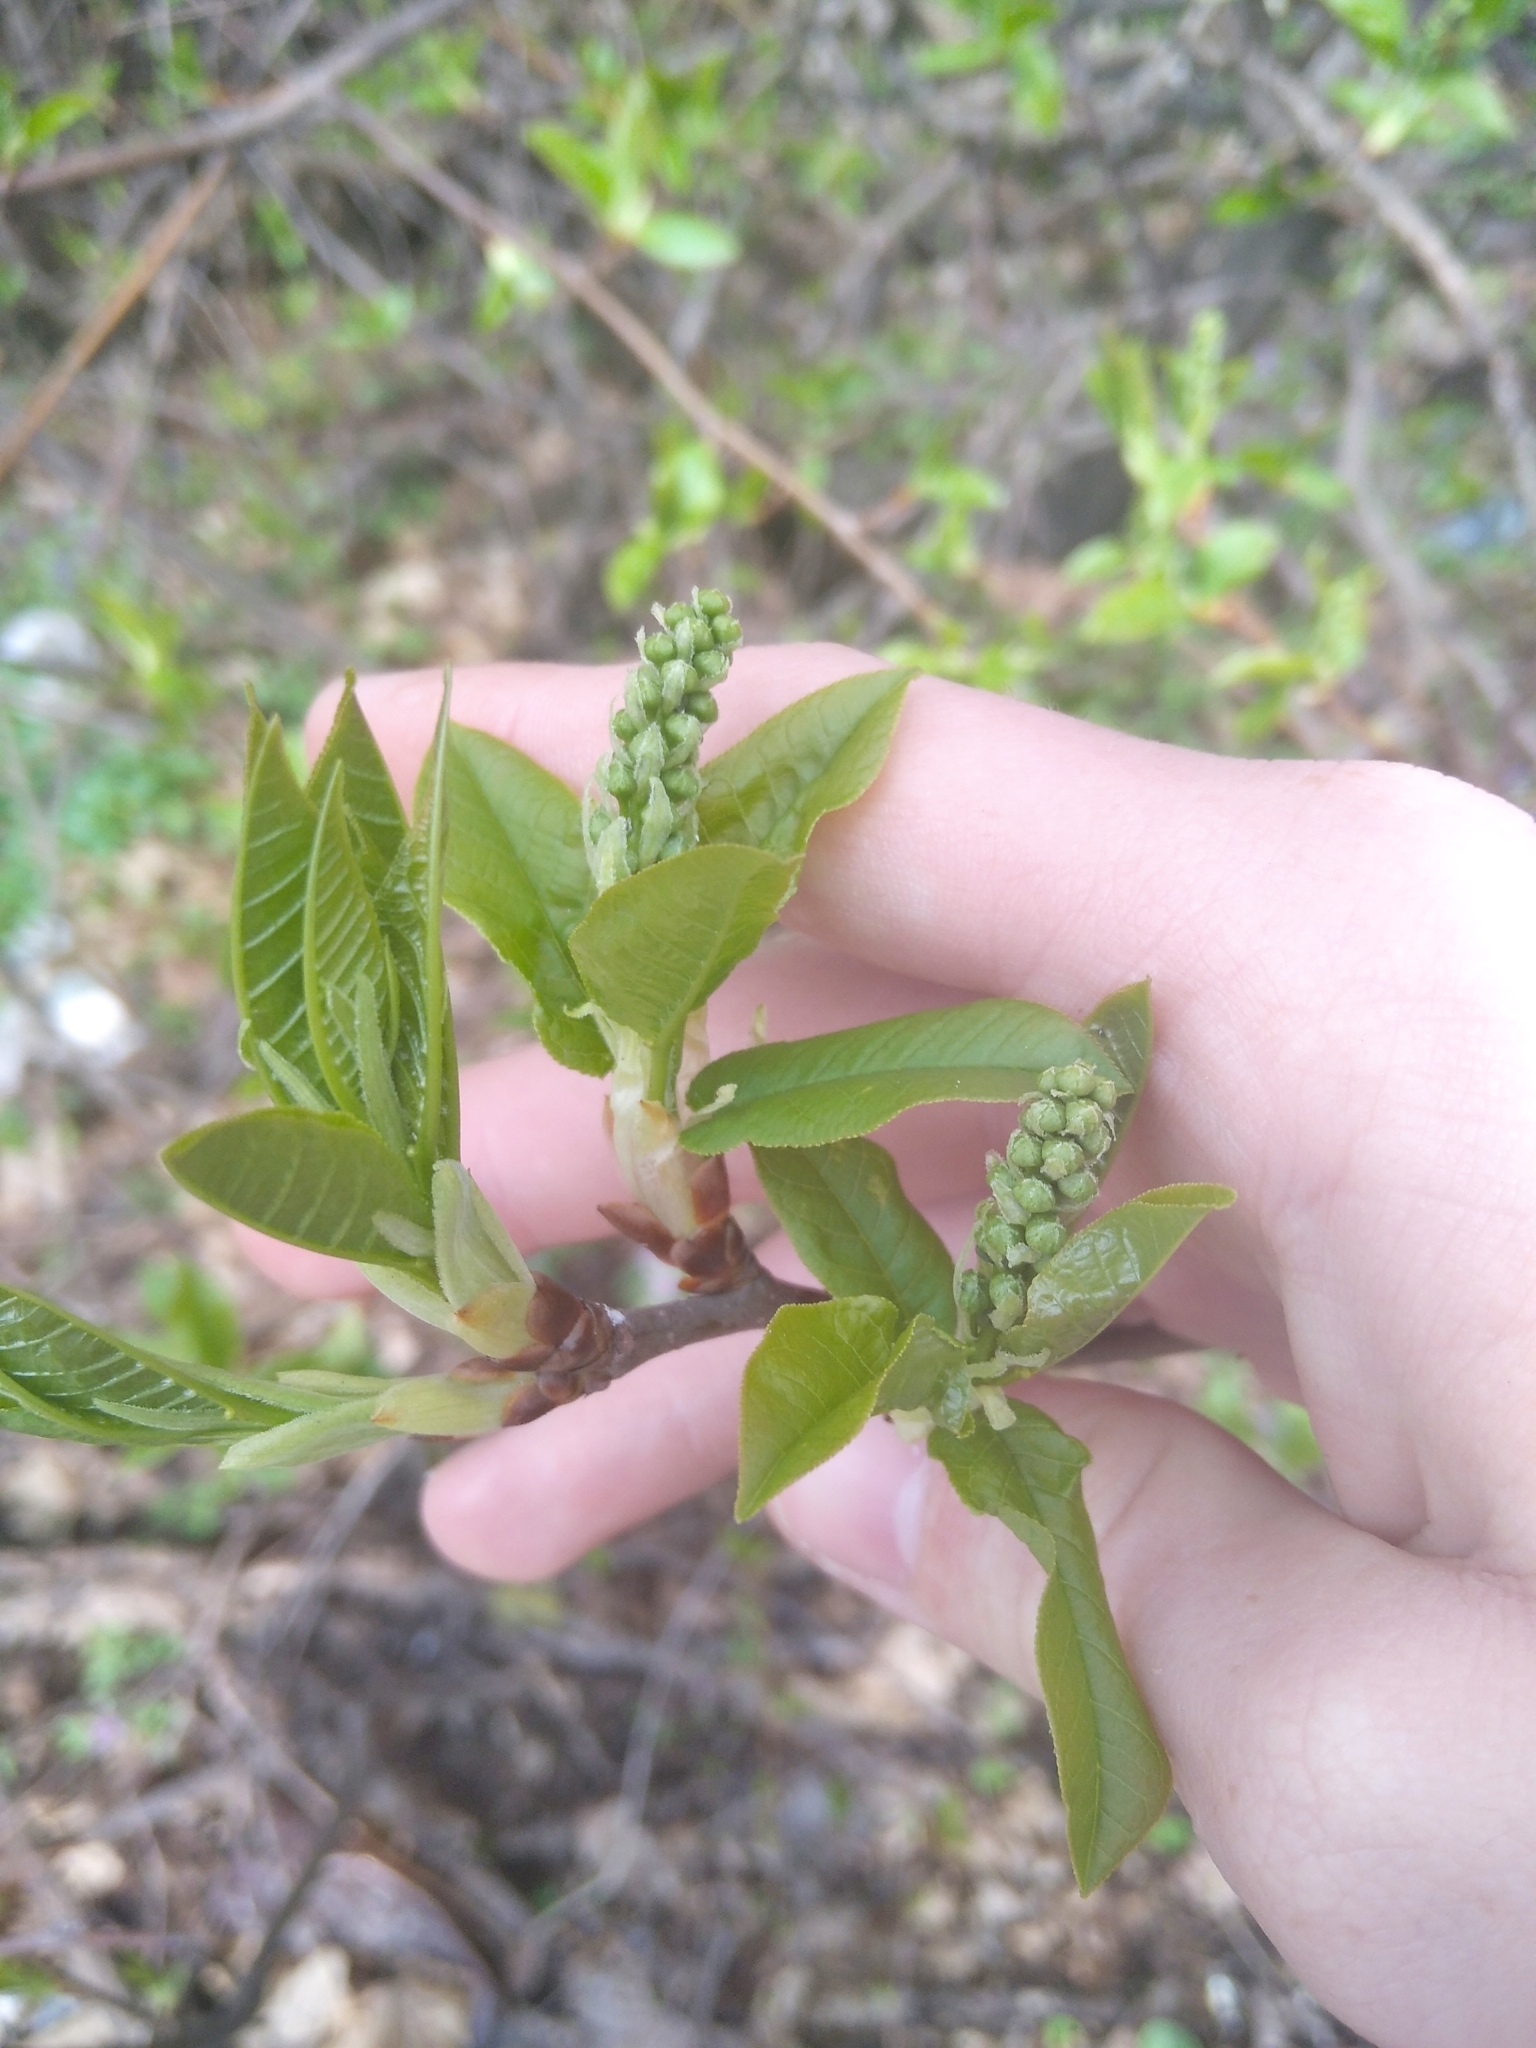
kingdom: Plantae
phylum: Tracheophyta
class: Magnoliopsida
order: Rosales
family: Rosaceae
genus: Prunus
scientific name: Prunus padus
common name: Bird cherry
